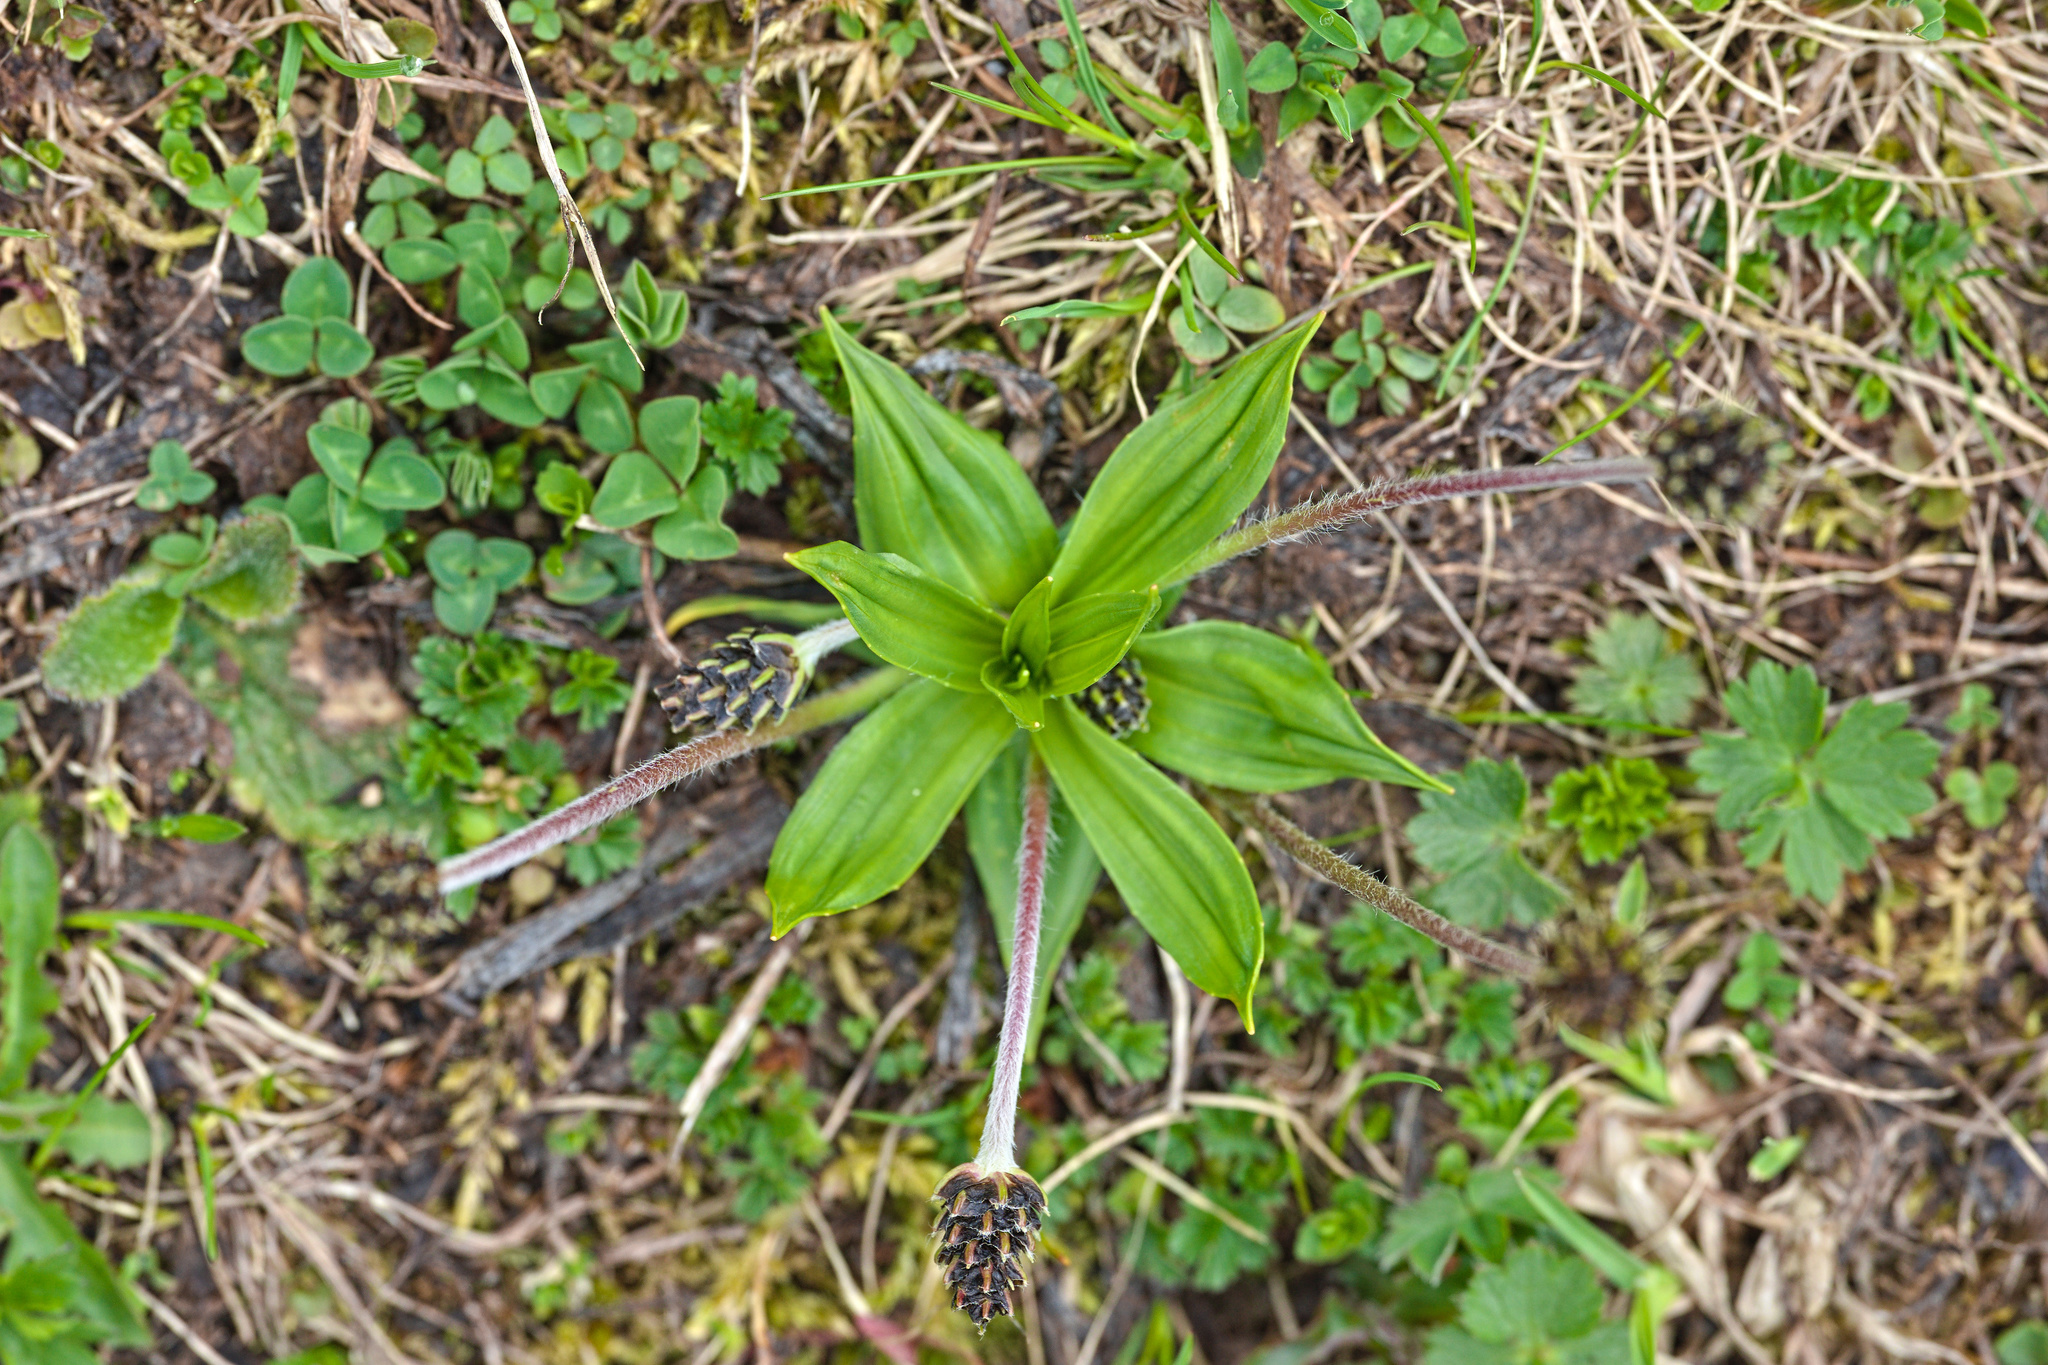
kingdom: Plantae
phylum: Tracheophyta
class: Magnoliopsida
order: Lamiales
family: Plantaginaceae
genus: Plantago
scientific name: Plantago atrata
